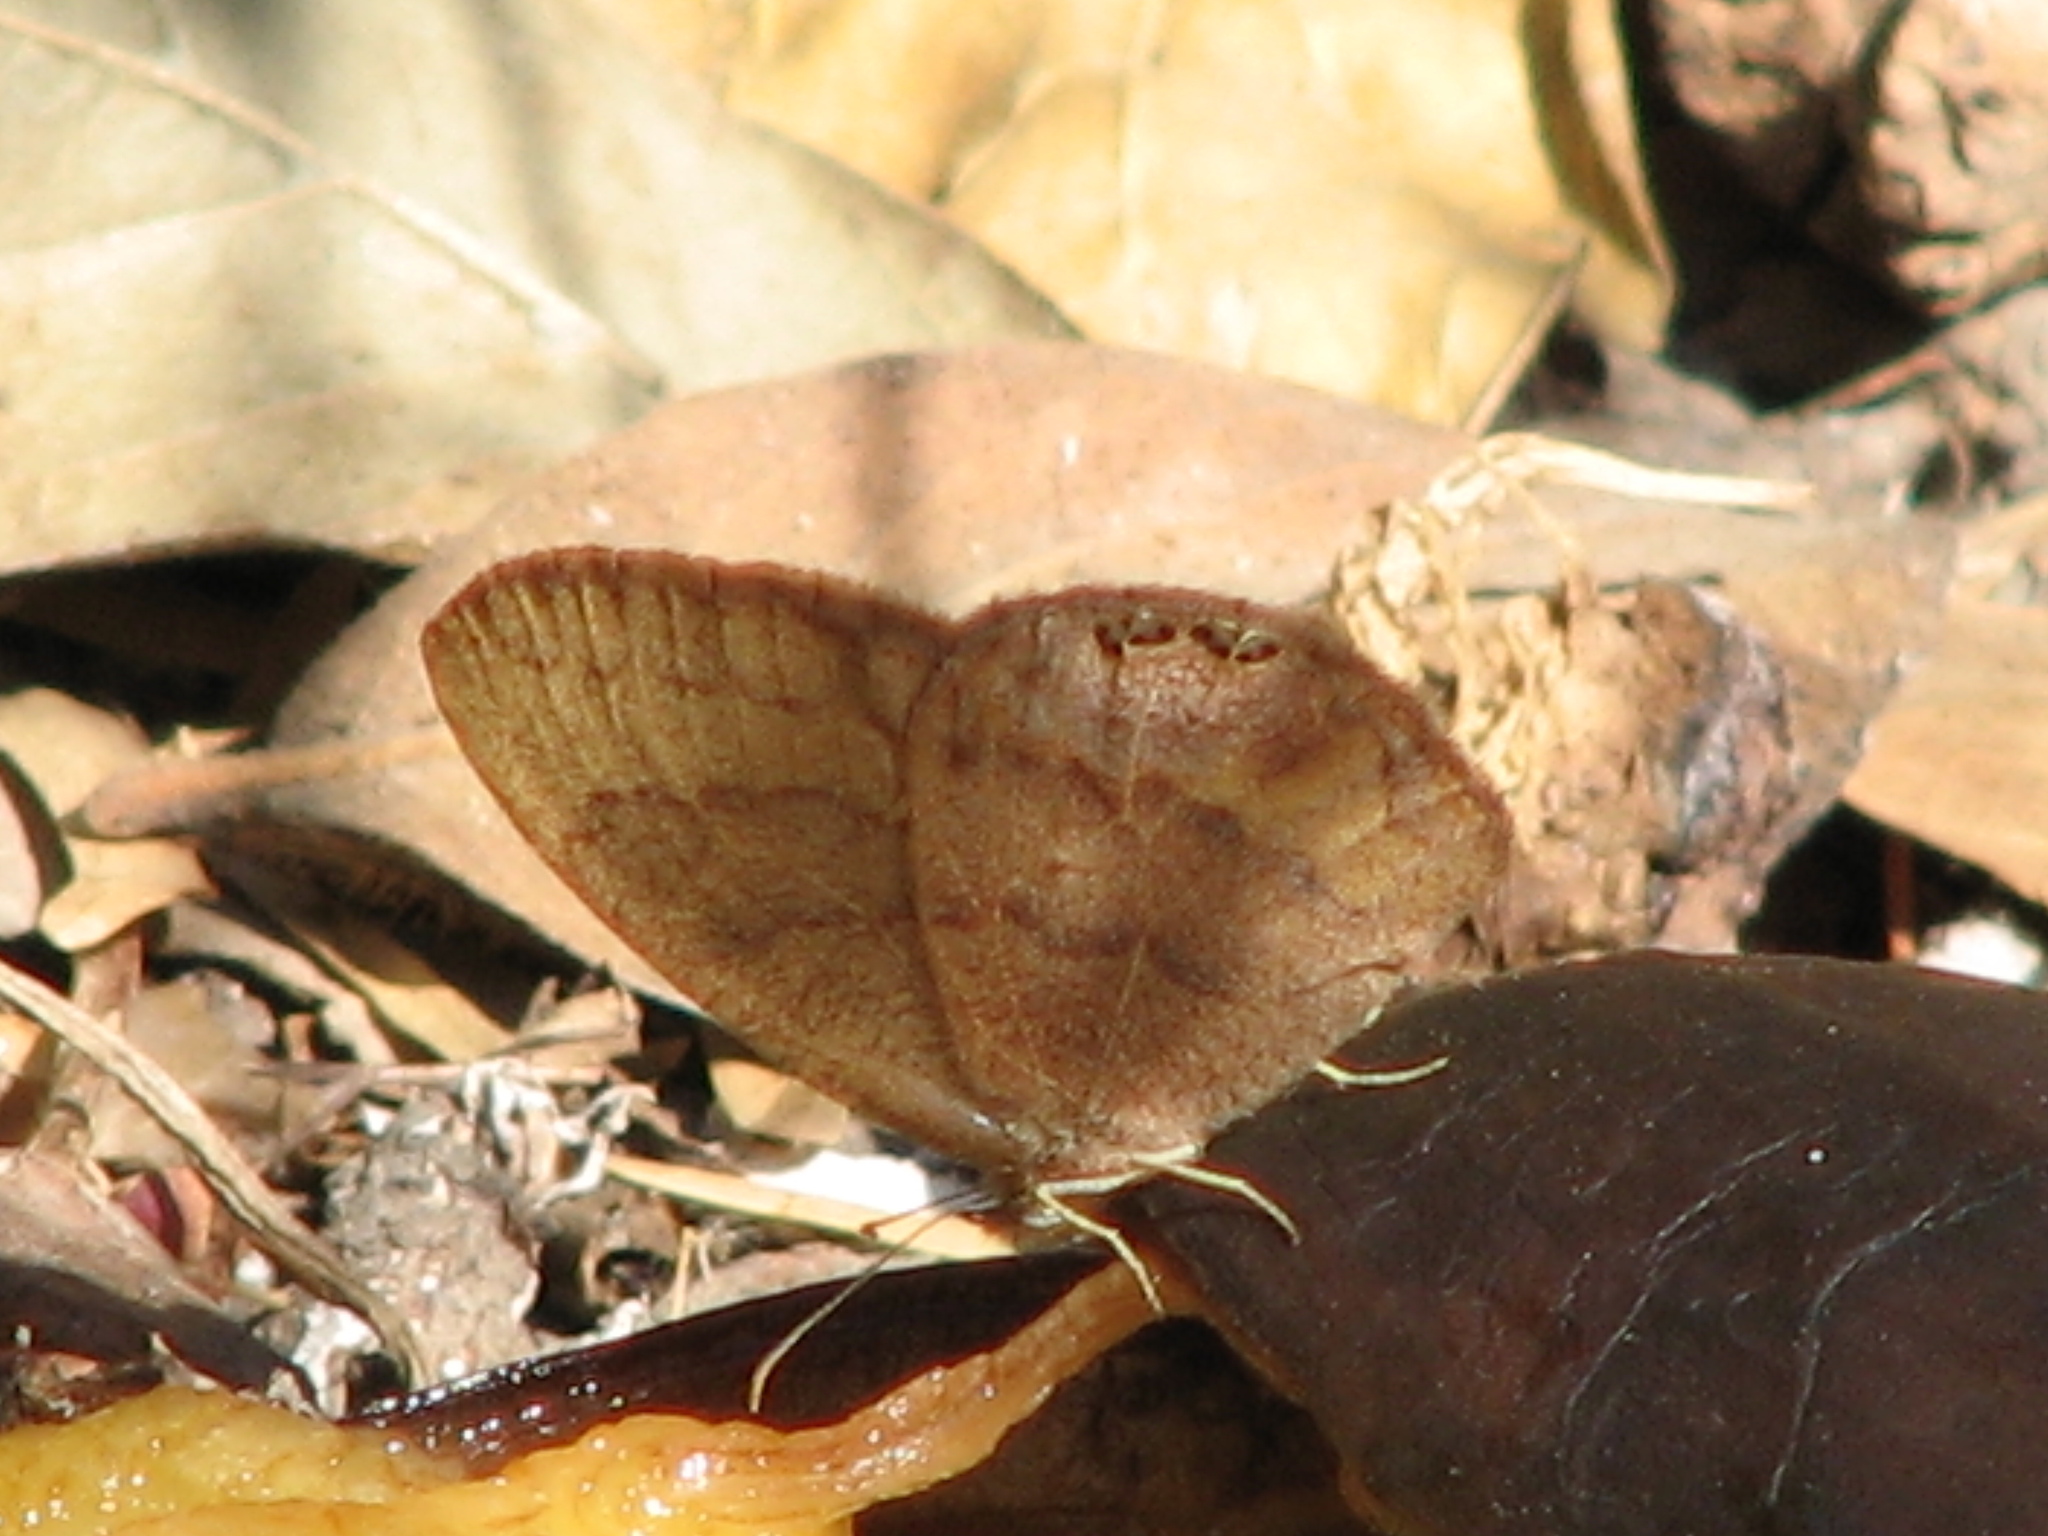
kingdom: Animalia
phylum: Arthropoda
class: Insecta
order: Lepidoptera
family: Nymphalidae
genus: Euptychia
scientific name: Euptychia cornelius
